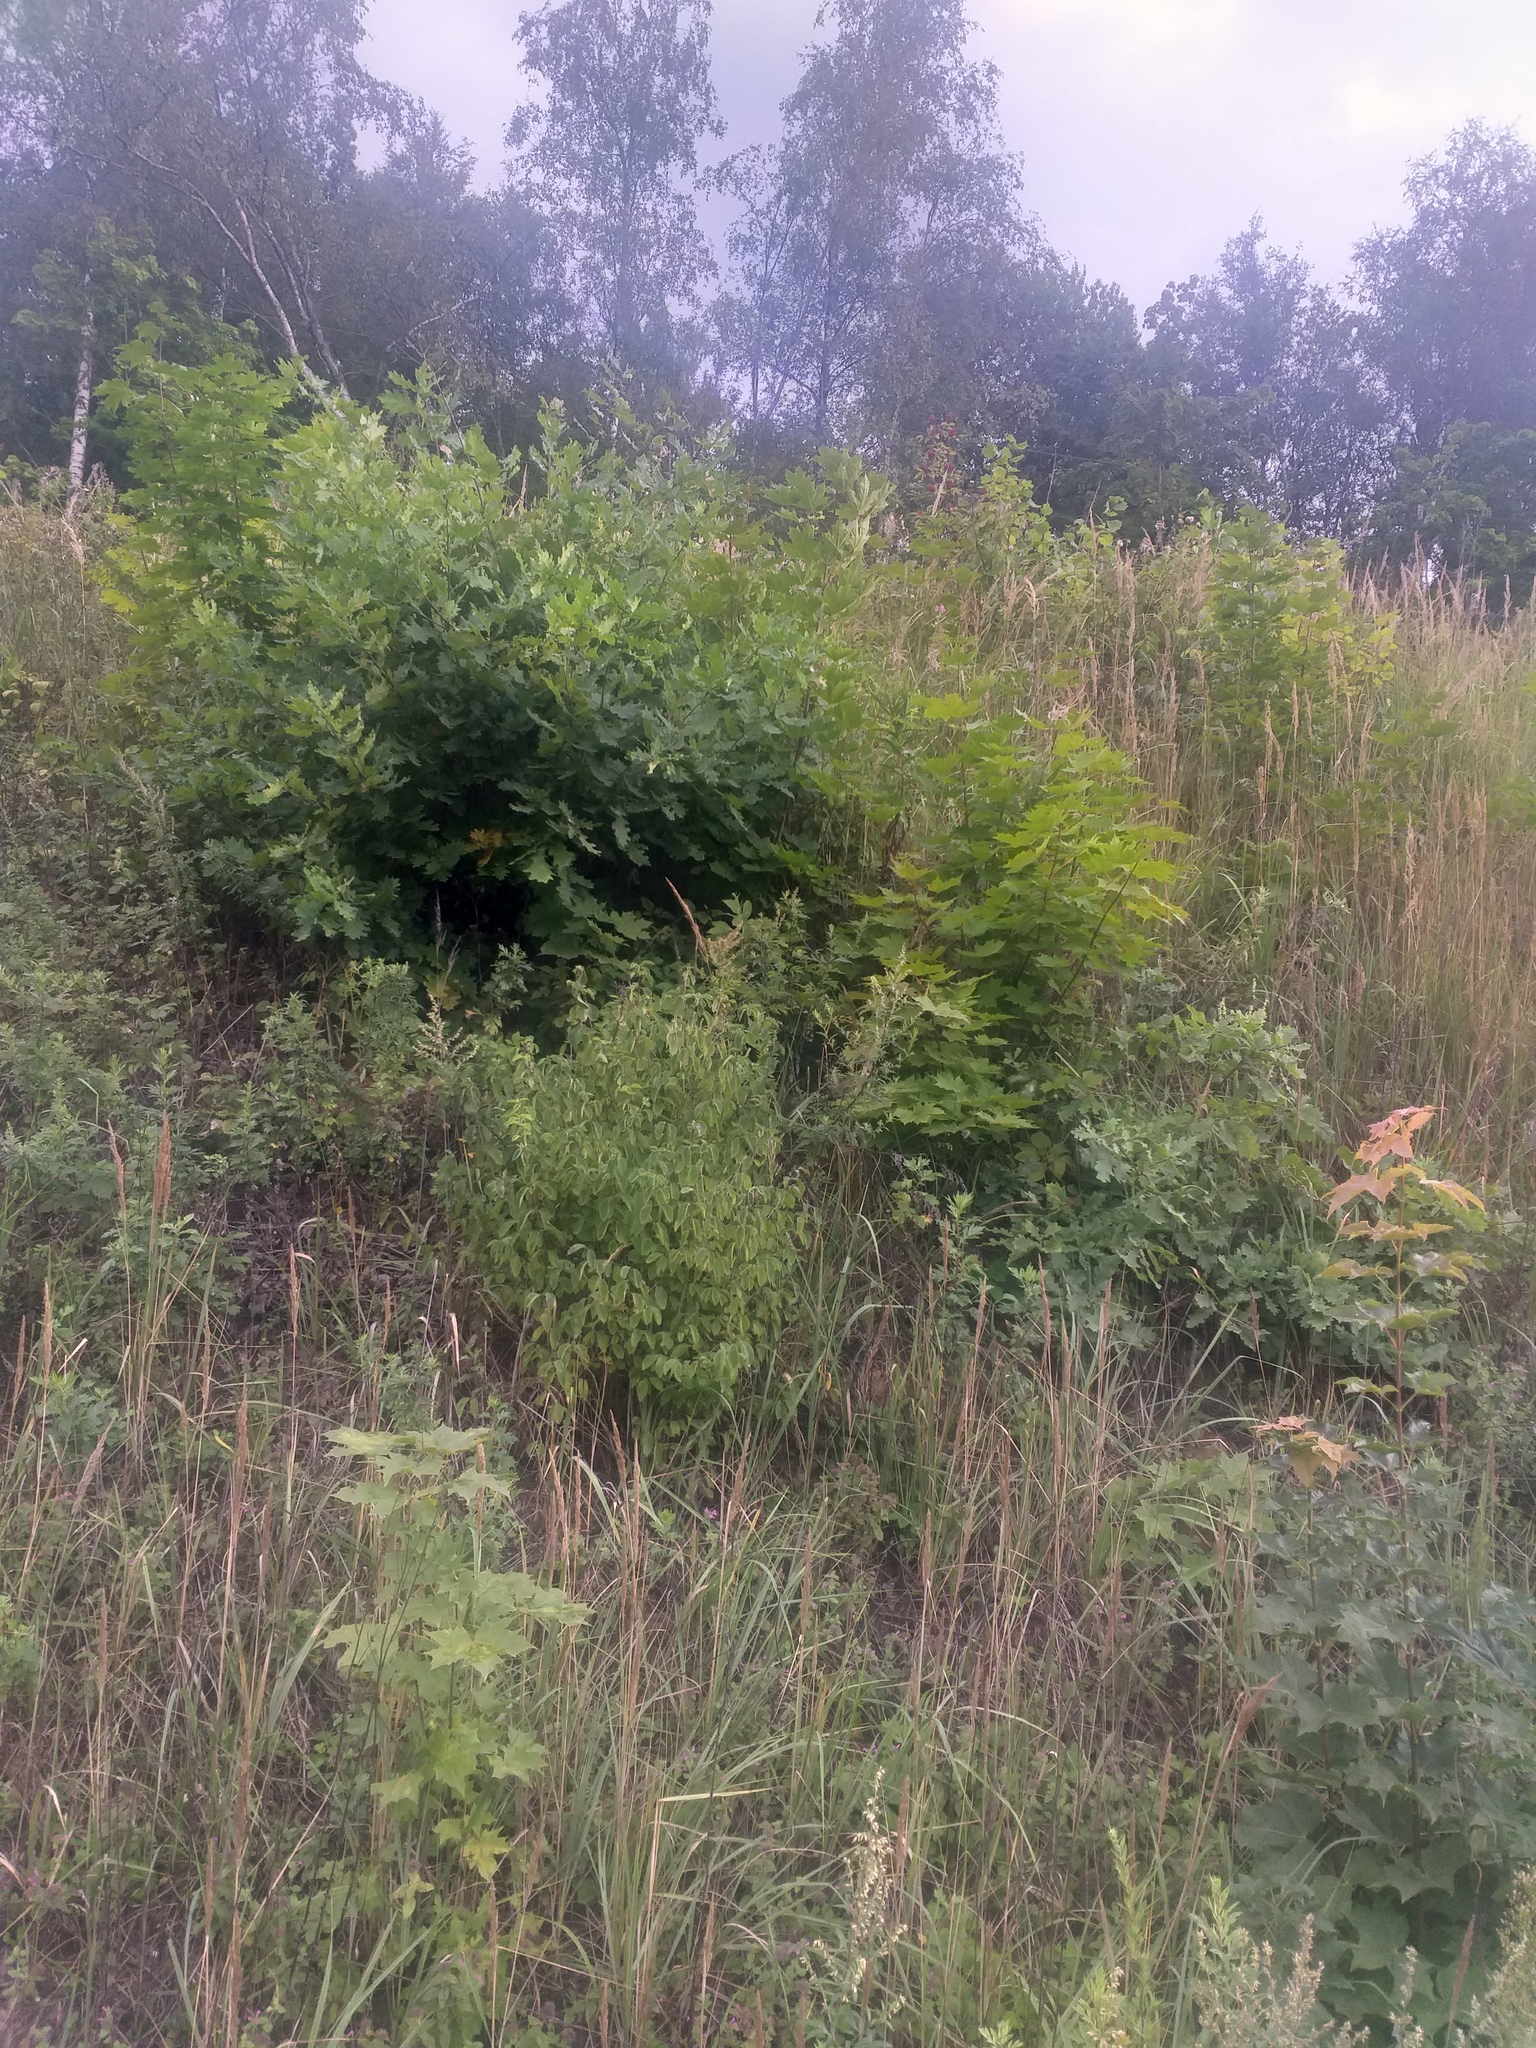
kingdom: Plantae
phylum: Tracheophyta
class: Magnoliopsida
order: Dipsacales
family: Caprifoliaceae
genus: Lonicera
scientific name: Lonicera xylosteum
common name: Fly honeysuckle
